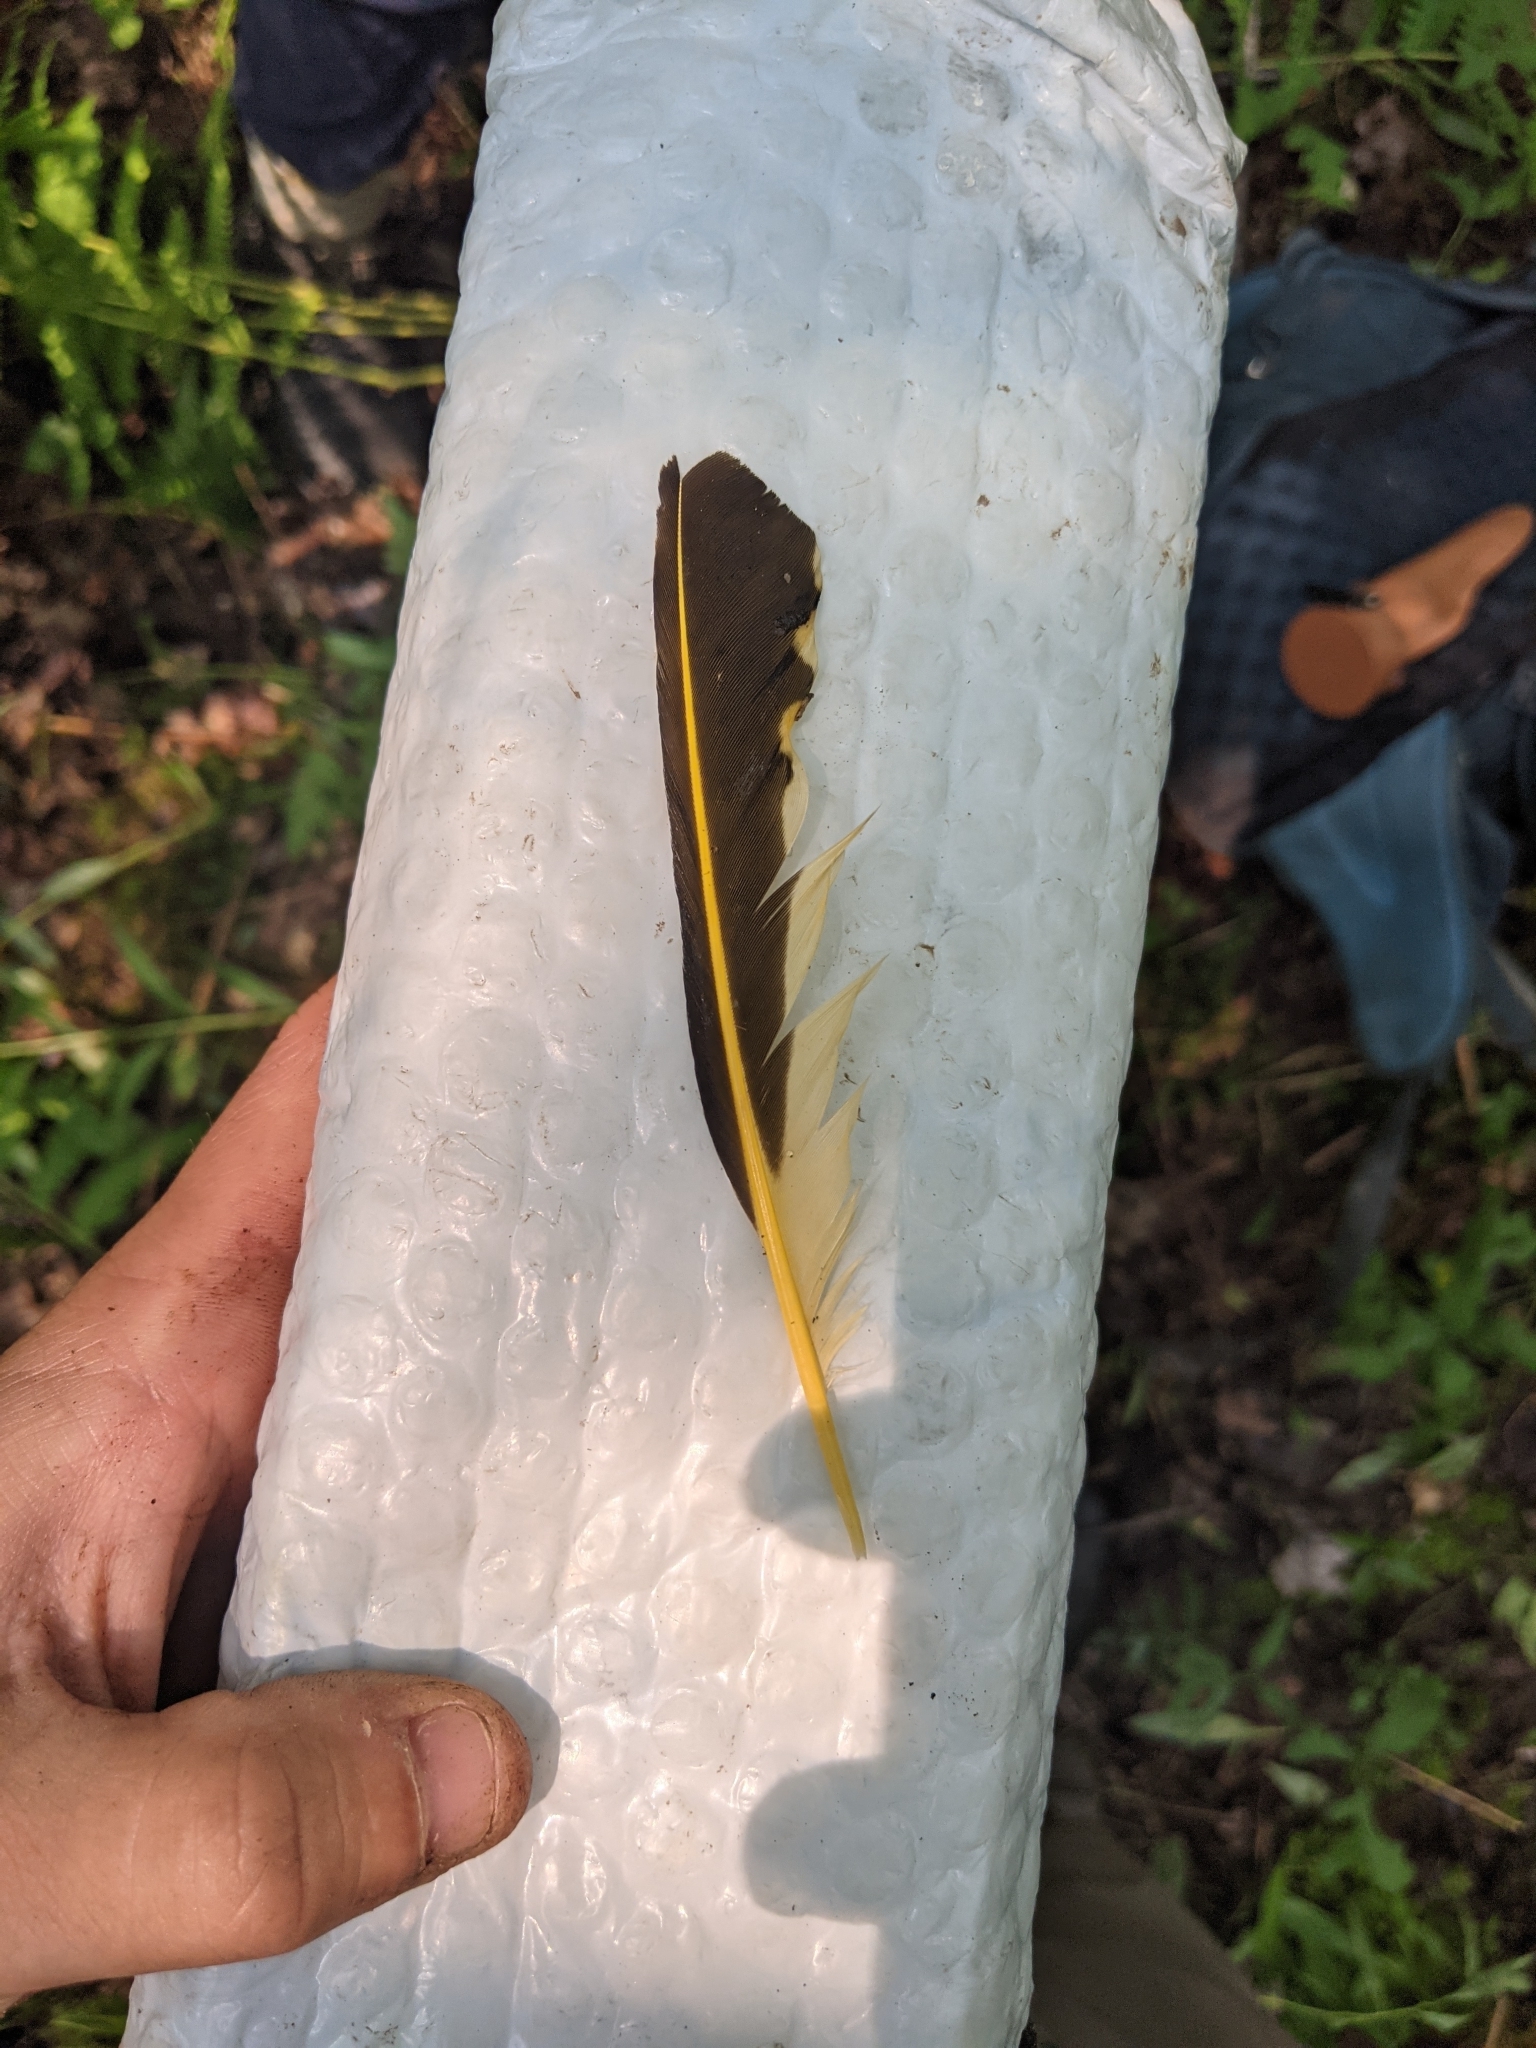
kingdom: Animalia
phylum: Chordata
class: Aves
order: Piciformes
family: Picidae
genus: Colaptes
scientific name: Colaptes auratus
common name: Northern flicker
